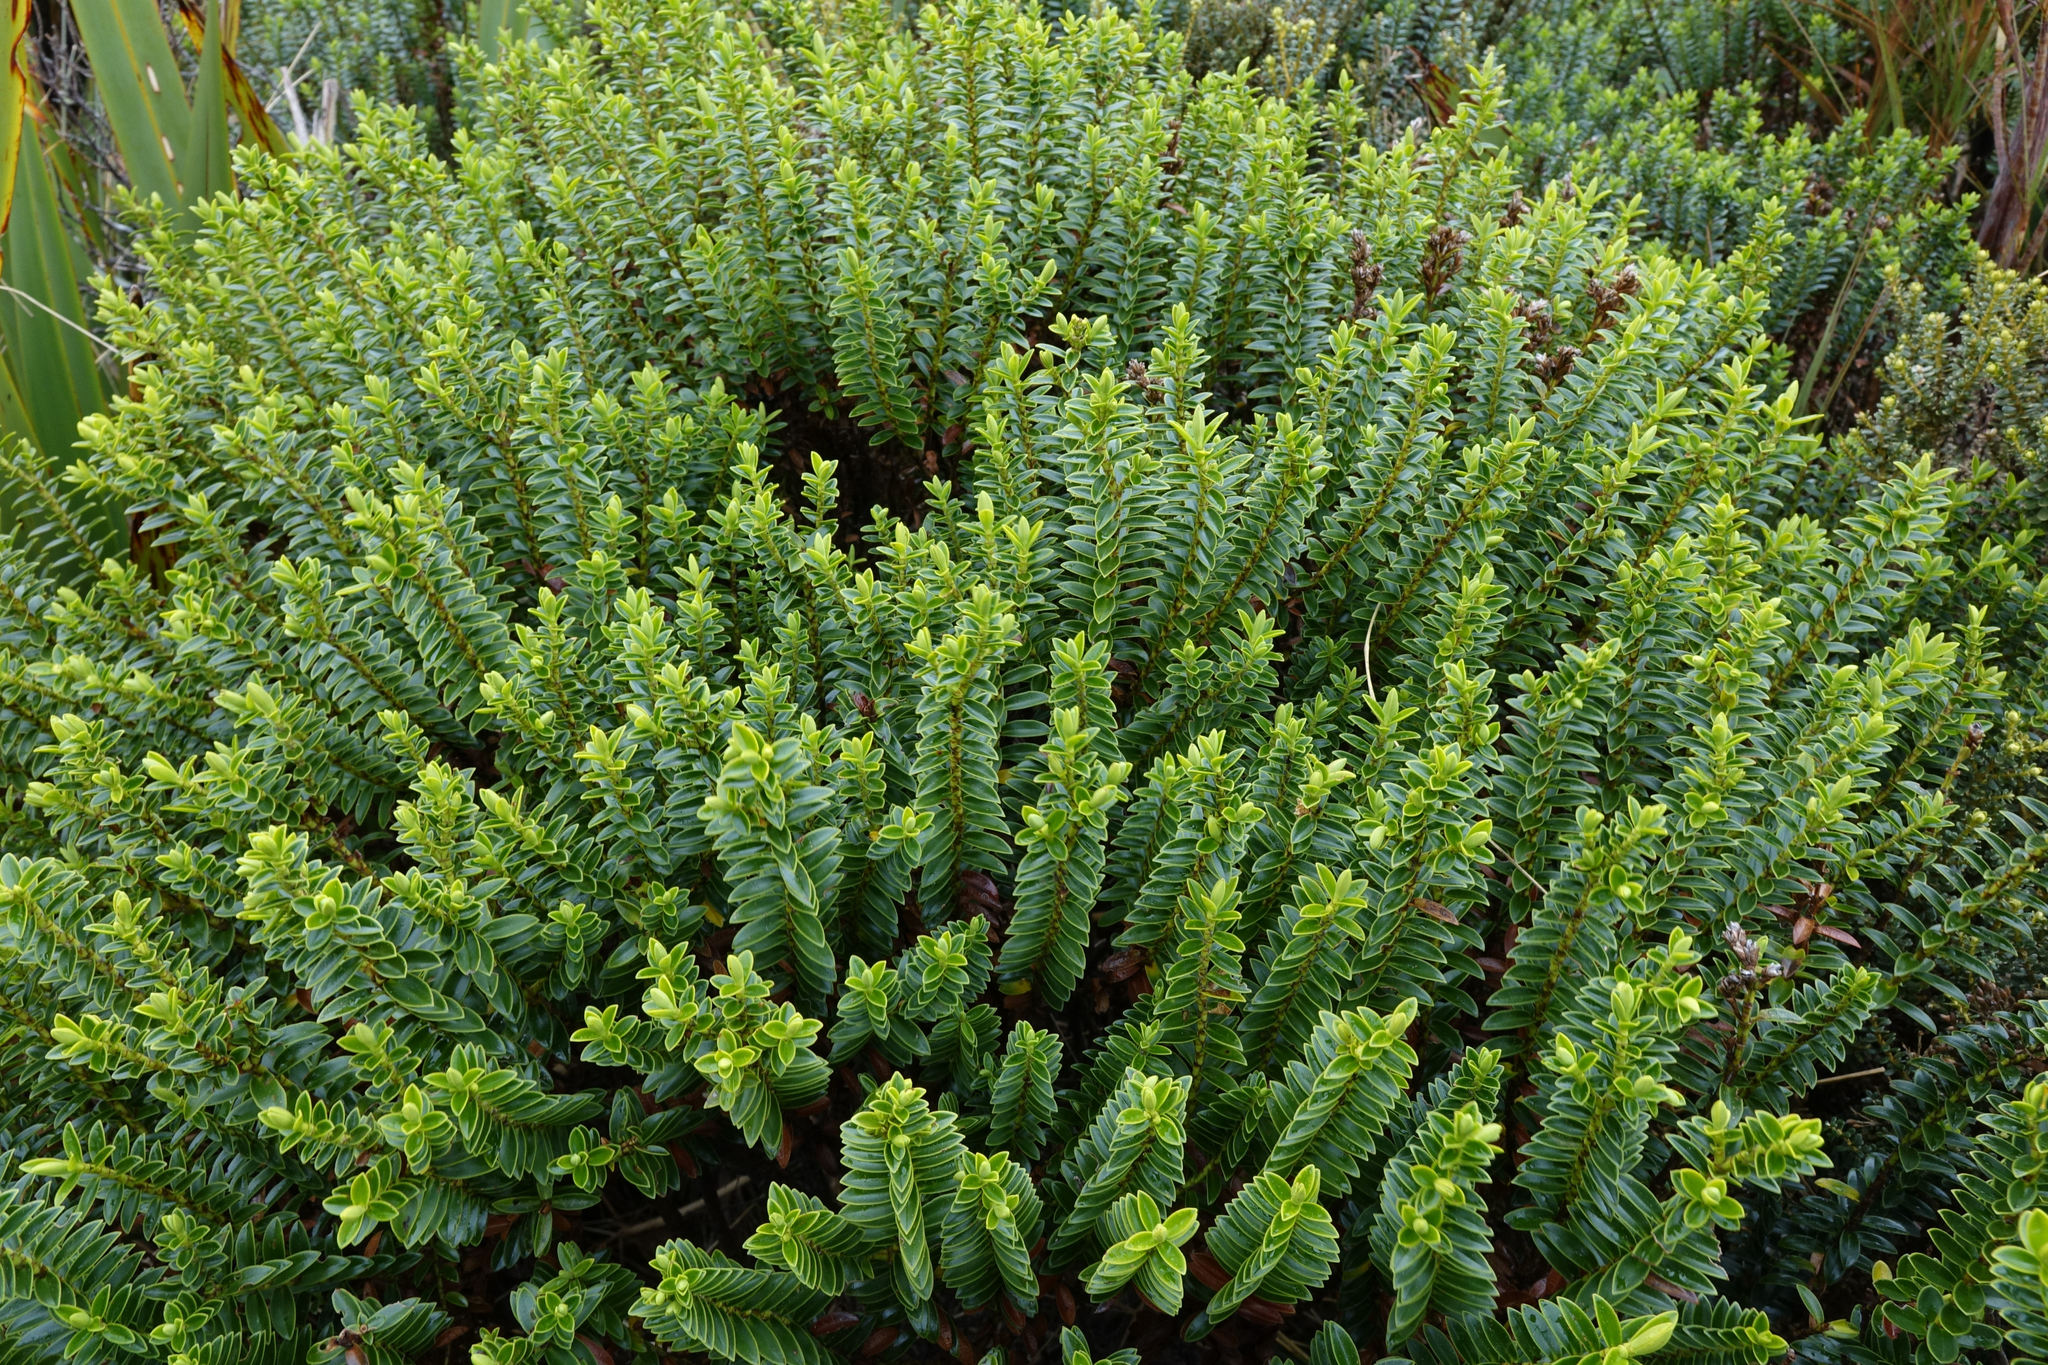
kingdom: Plantae
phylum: Tracheophyta
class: Magnoliopsida
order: Lamiales
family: Plantaginaceae
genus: Veronica
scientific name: Veronica odora
